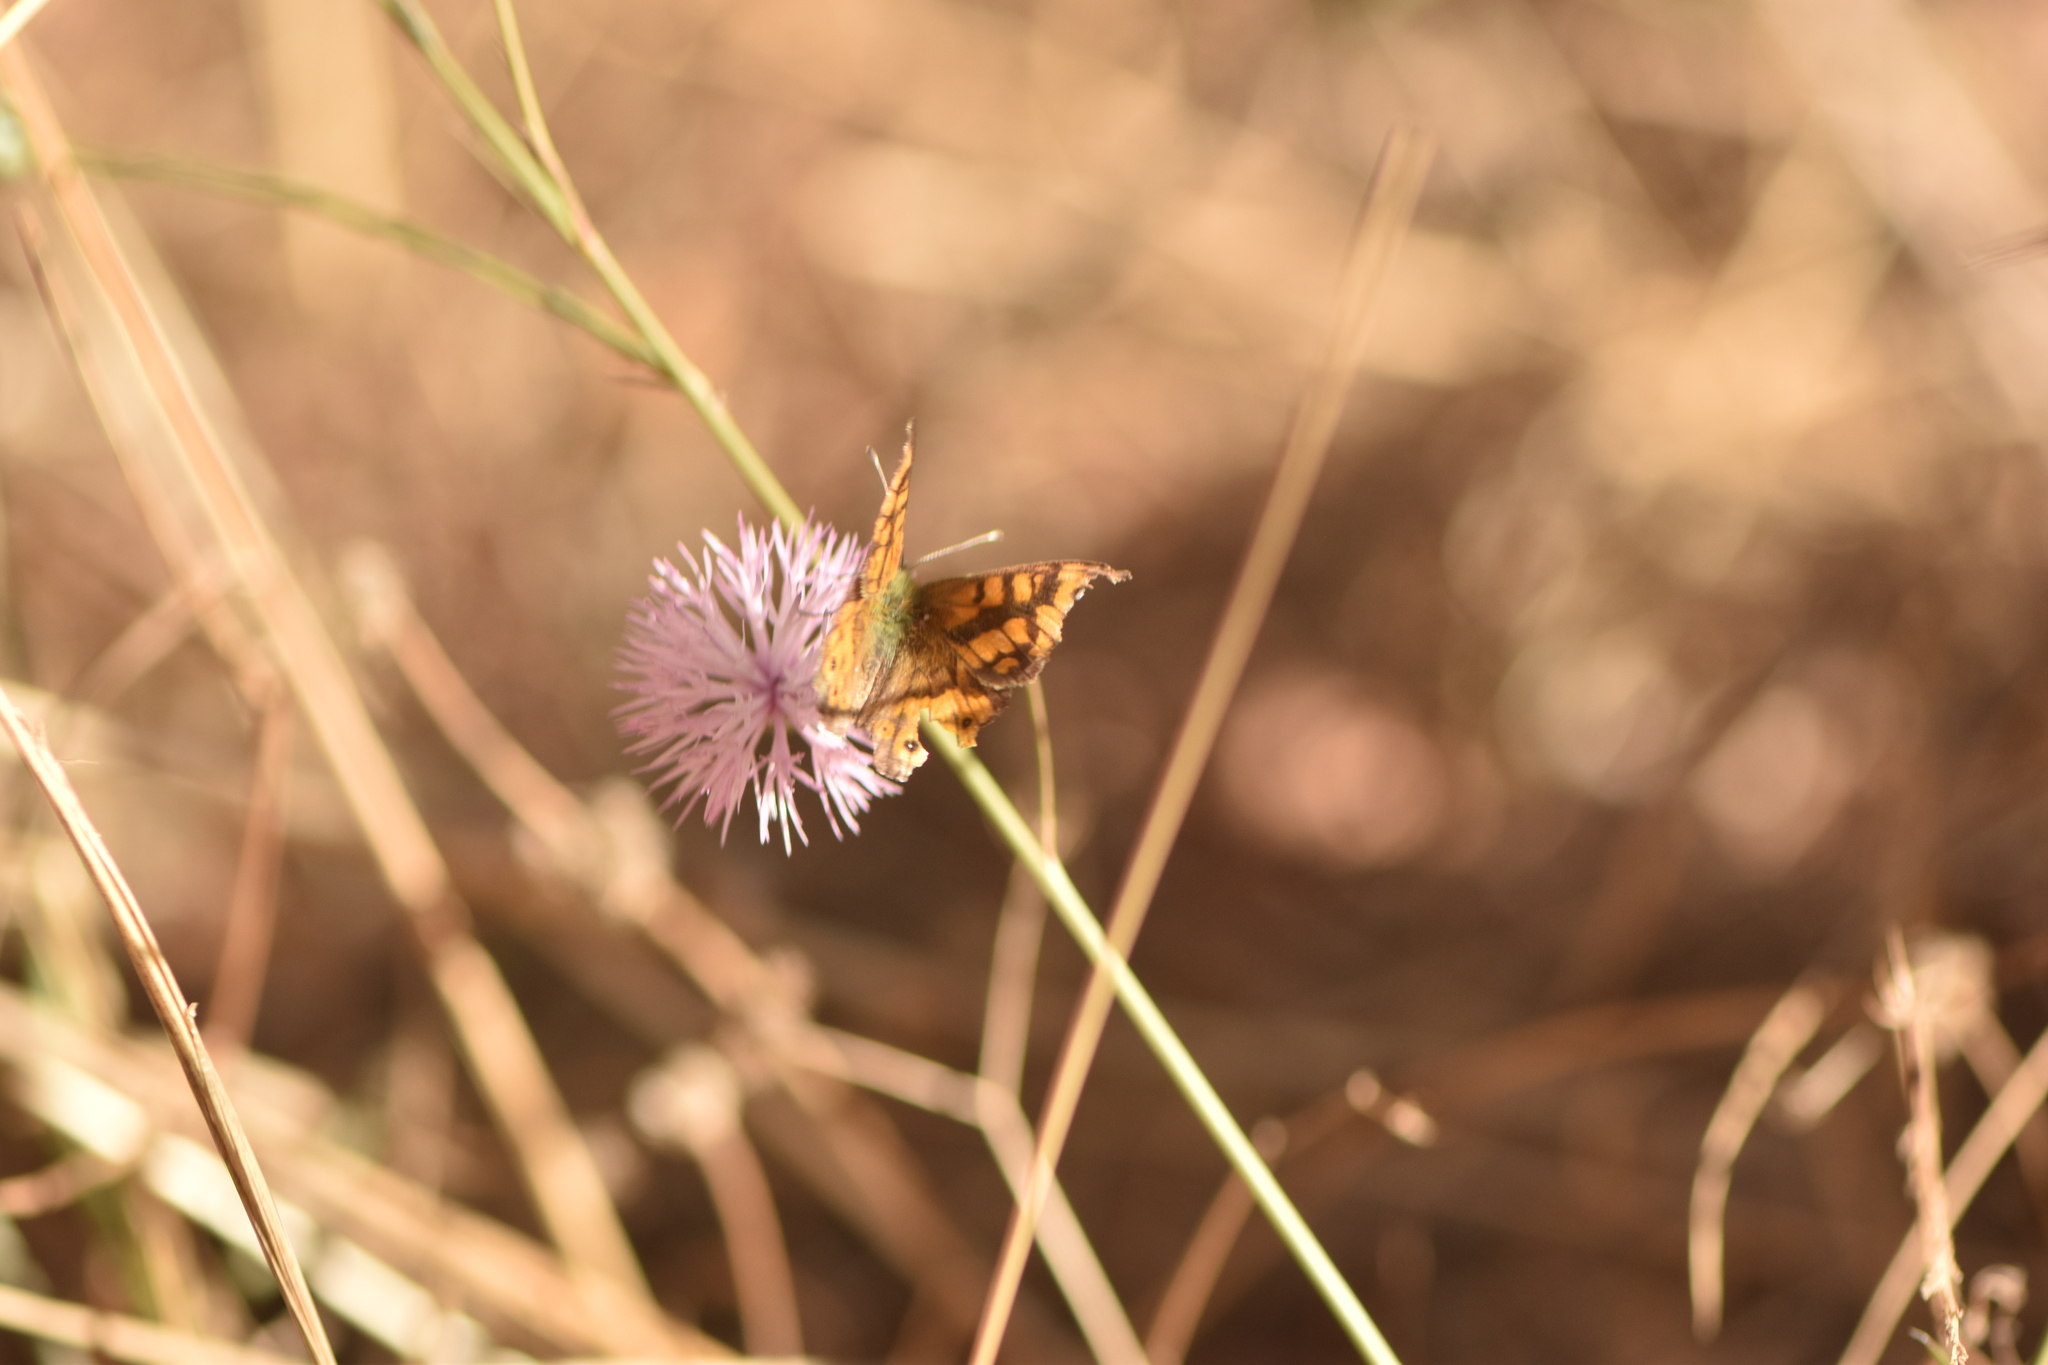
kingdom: Animalia
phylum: Arthropoda
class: Insecta
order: Lepidoptera
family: Nymphalidae
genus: Pararge
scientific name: Pararge Lasiommata megera
